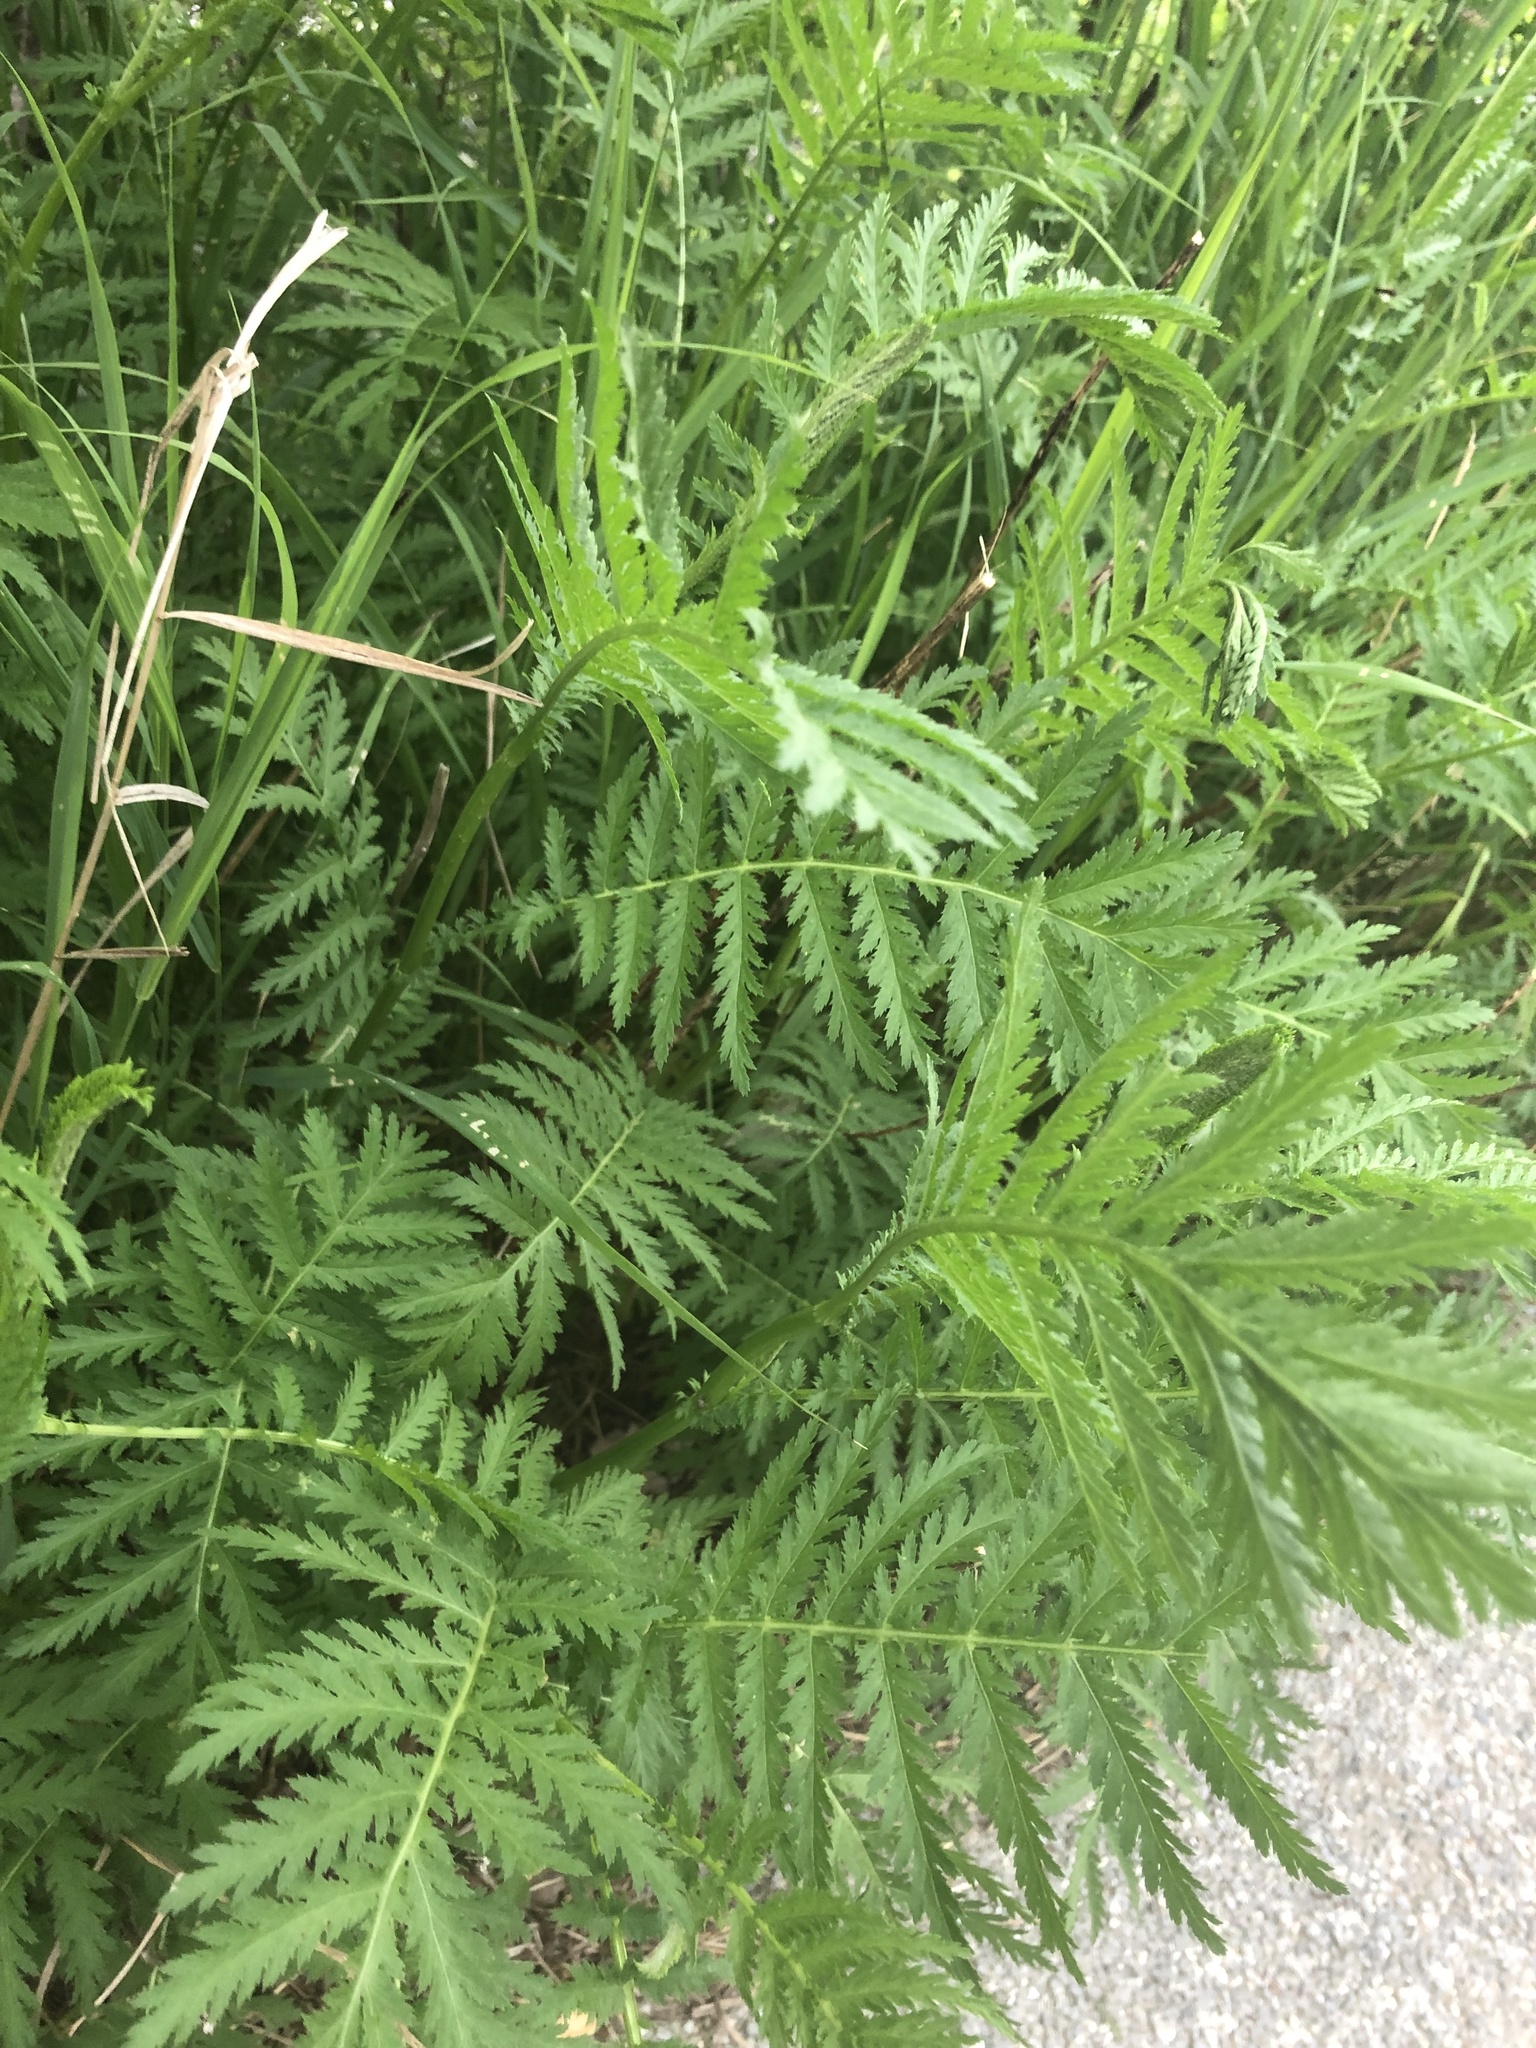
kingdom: Plantae
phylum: Tracheophyta
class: Magnoliopsida
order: Asterales
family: Asteraceae
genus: Tanacetum
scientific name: Tanacetum vulgare
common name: Common tansy
